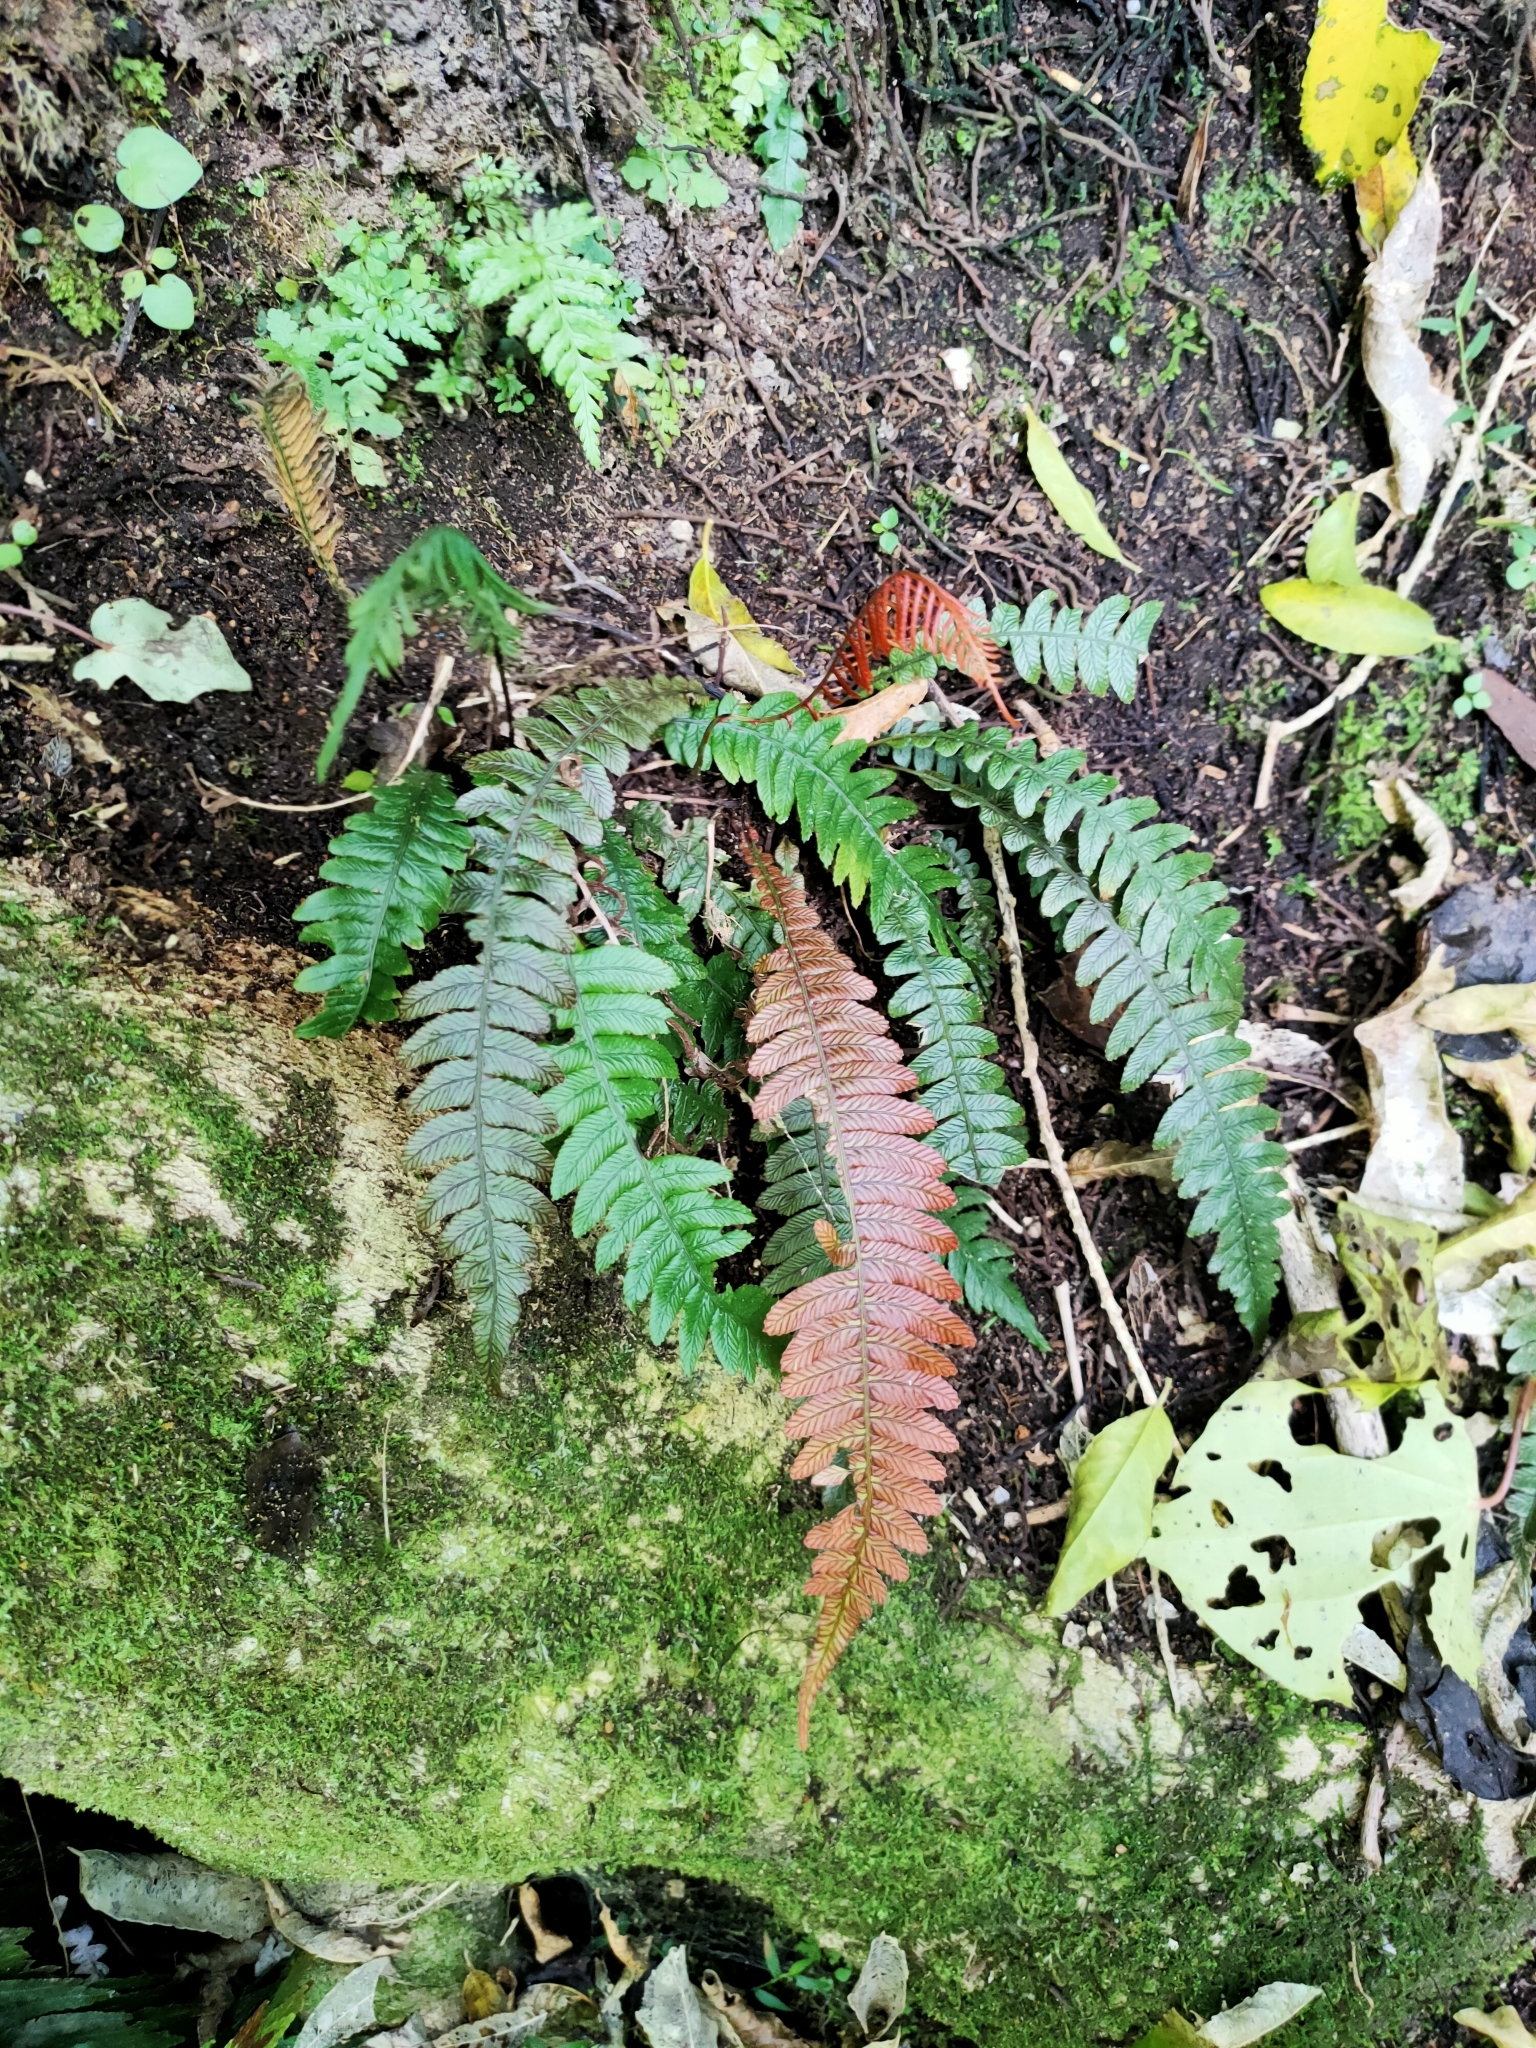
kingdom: Plantae
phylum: Tracheophyta
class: Polypodiopsida
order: Polypodiales
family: Blechnaceae
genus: Austroblechnum
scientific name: Austroblechnum lanceolatum
